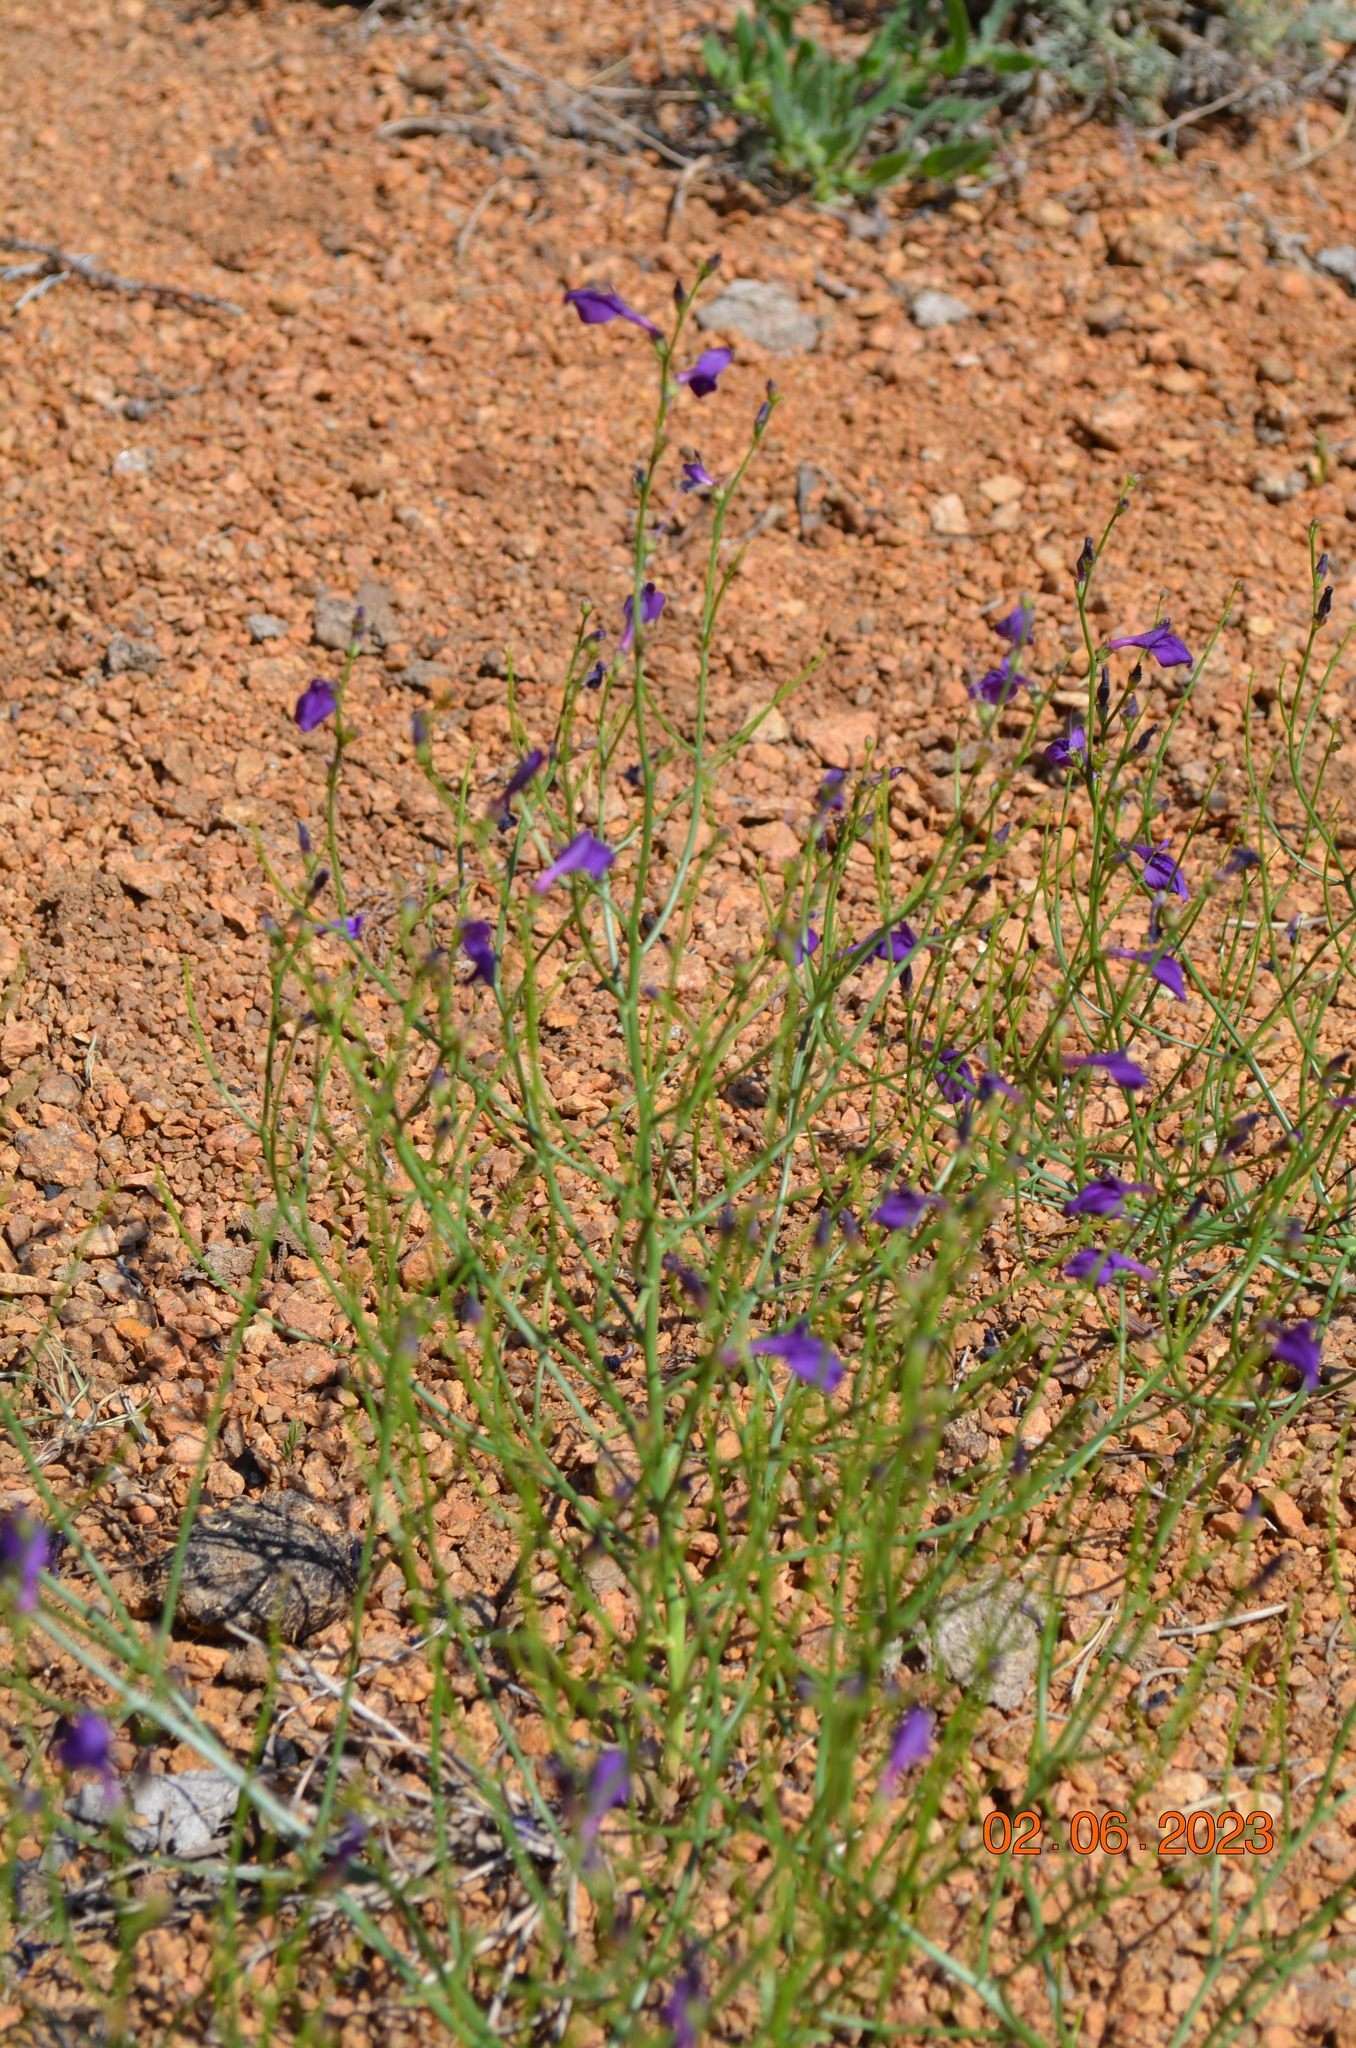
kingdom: Plantae
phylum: Tracheophyta
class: Magnoliopsida
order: Lamiales
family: Mazaceae
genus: Dodartia
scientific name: Dodartia orientalis
